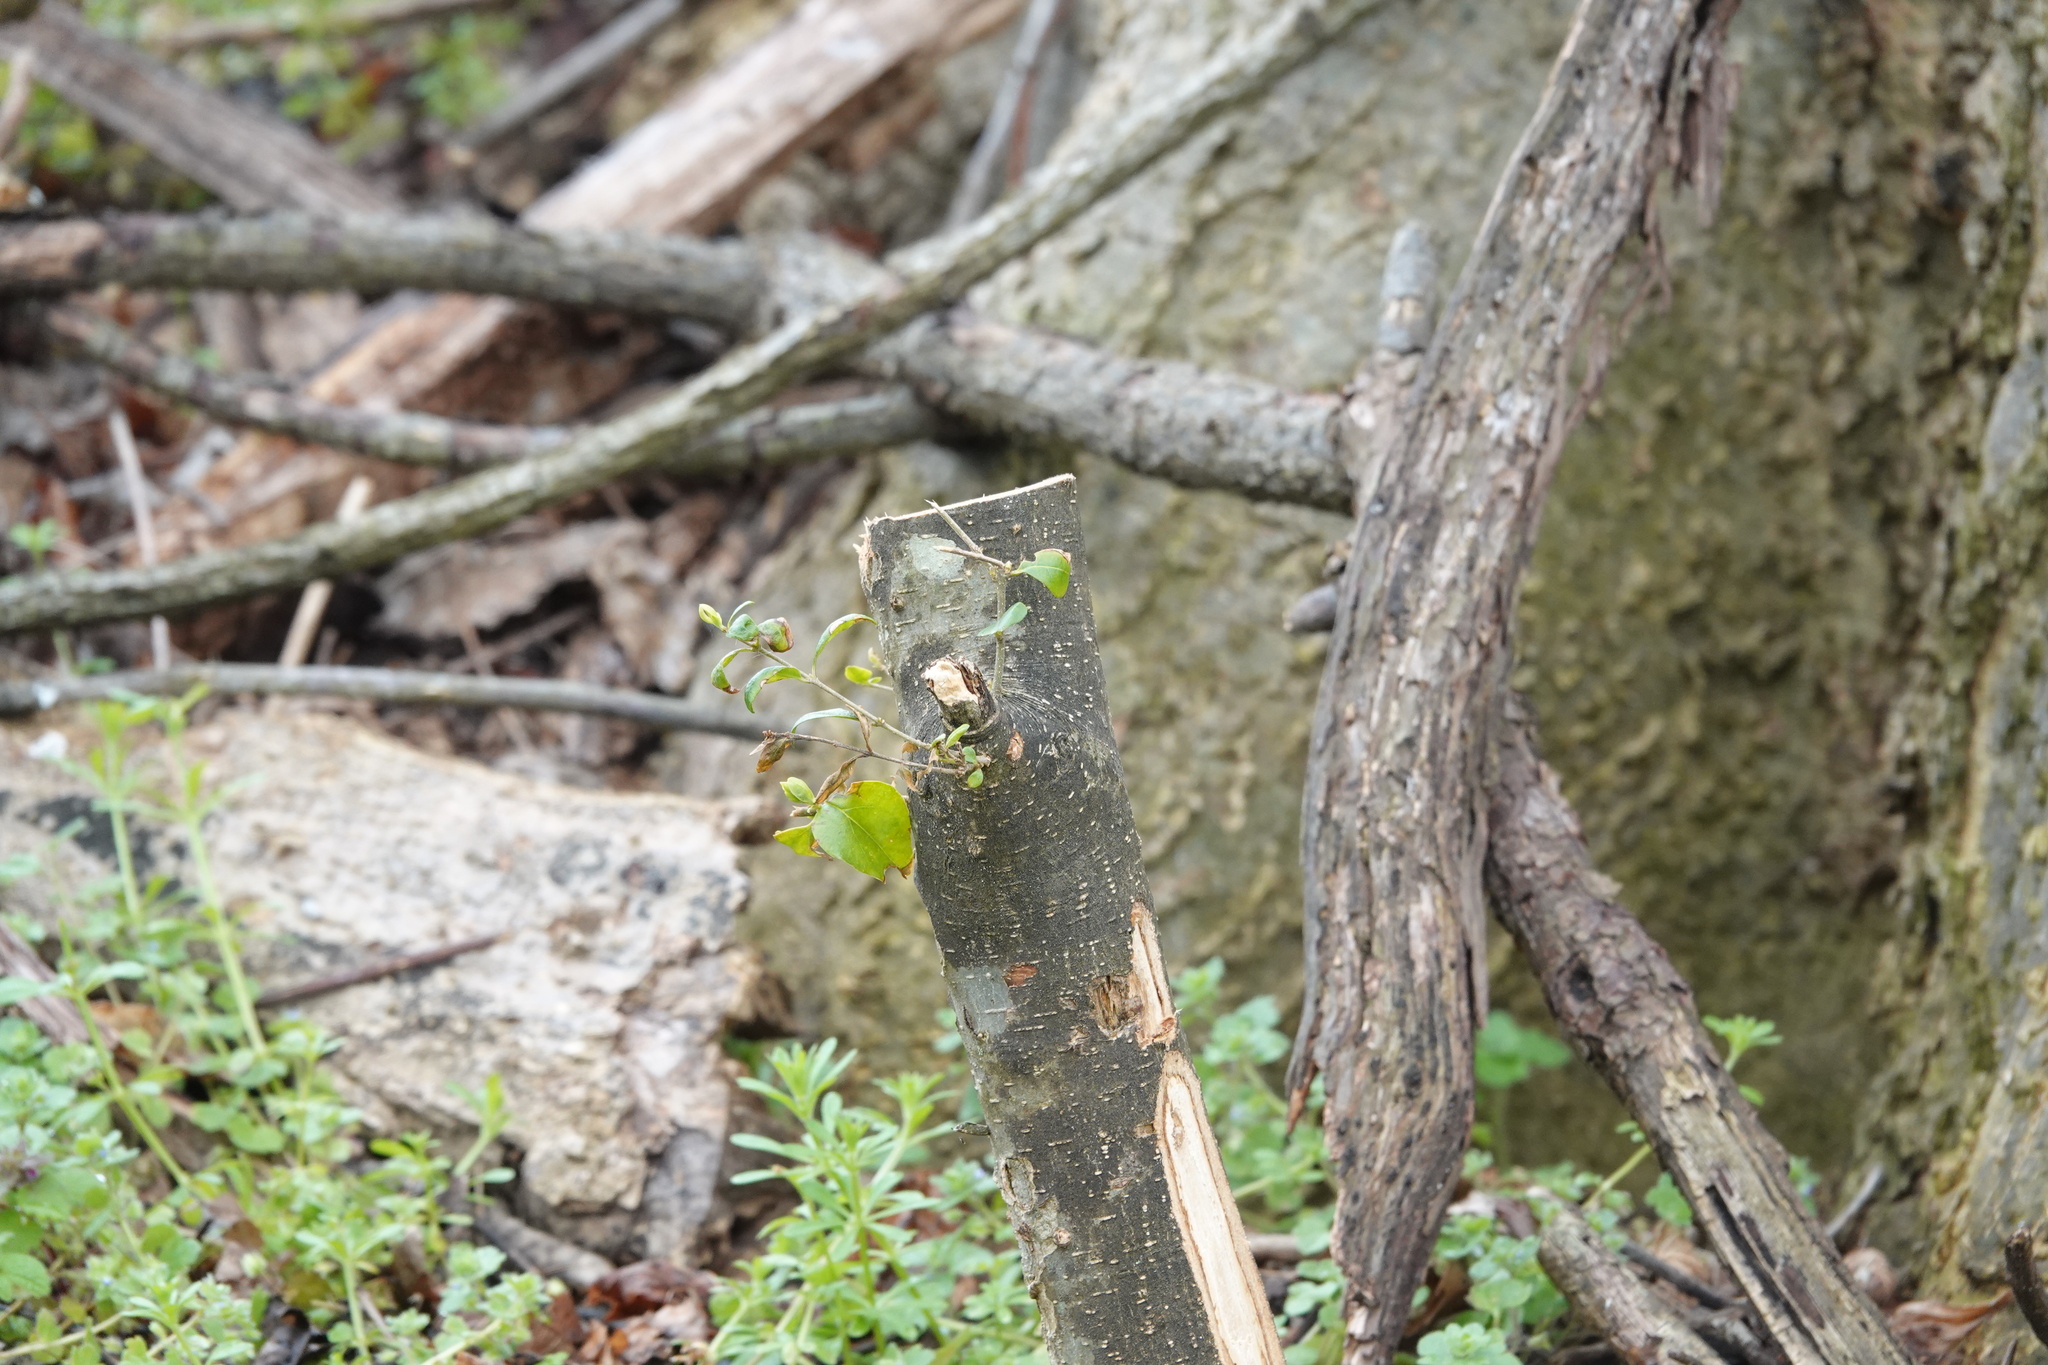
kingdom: Plantae
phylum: Tracheophyta
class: Magnoliopsida
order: Lamiales
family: Oleaceae
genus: Ligustrum
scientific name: Ligustrum sinense
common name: Chinese privet
